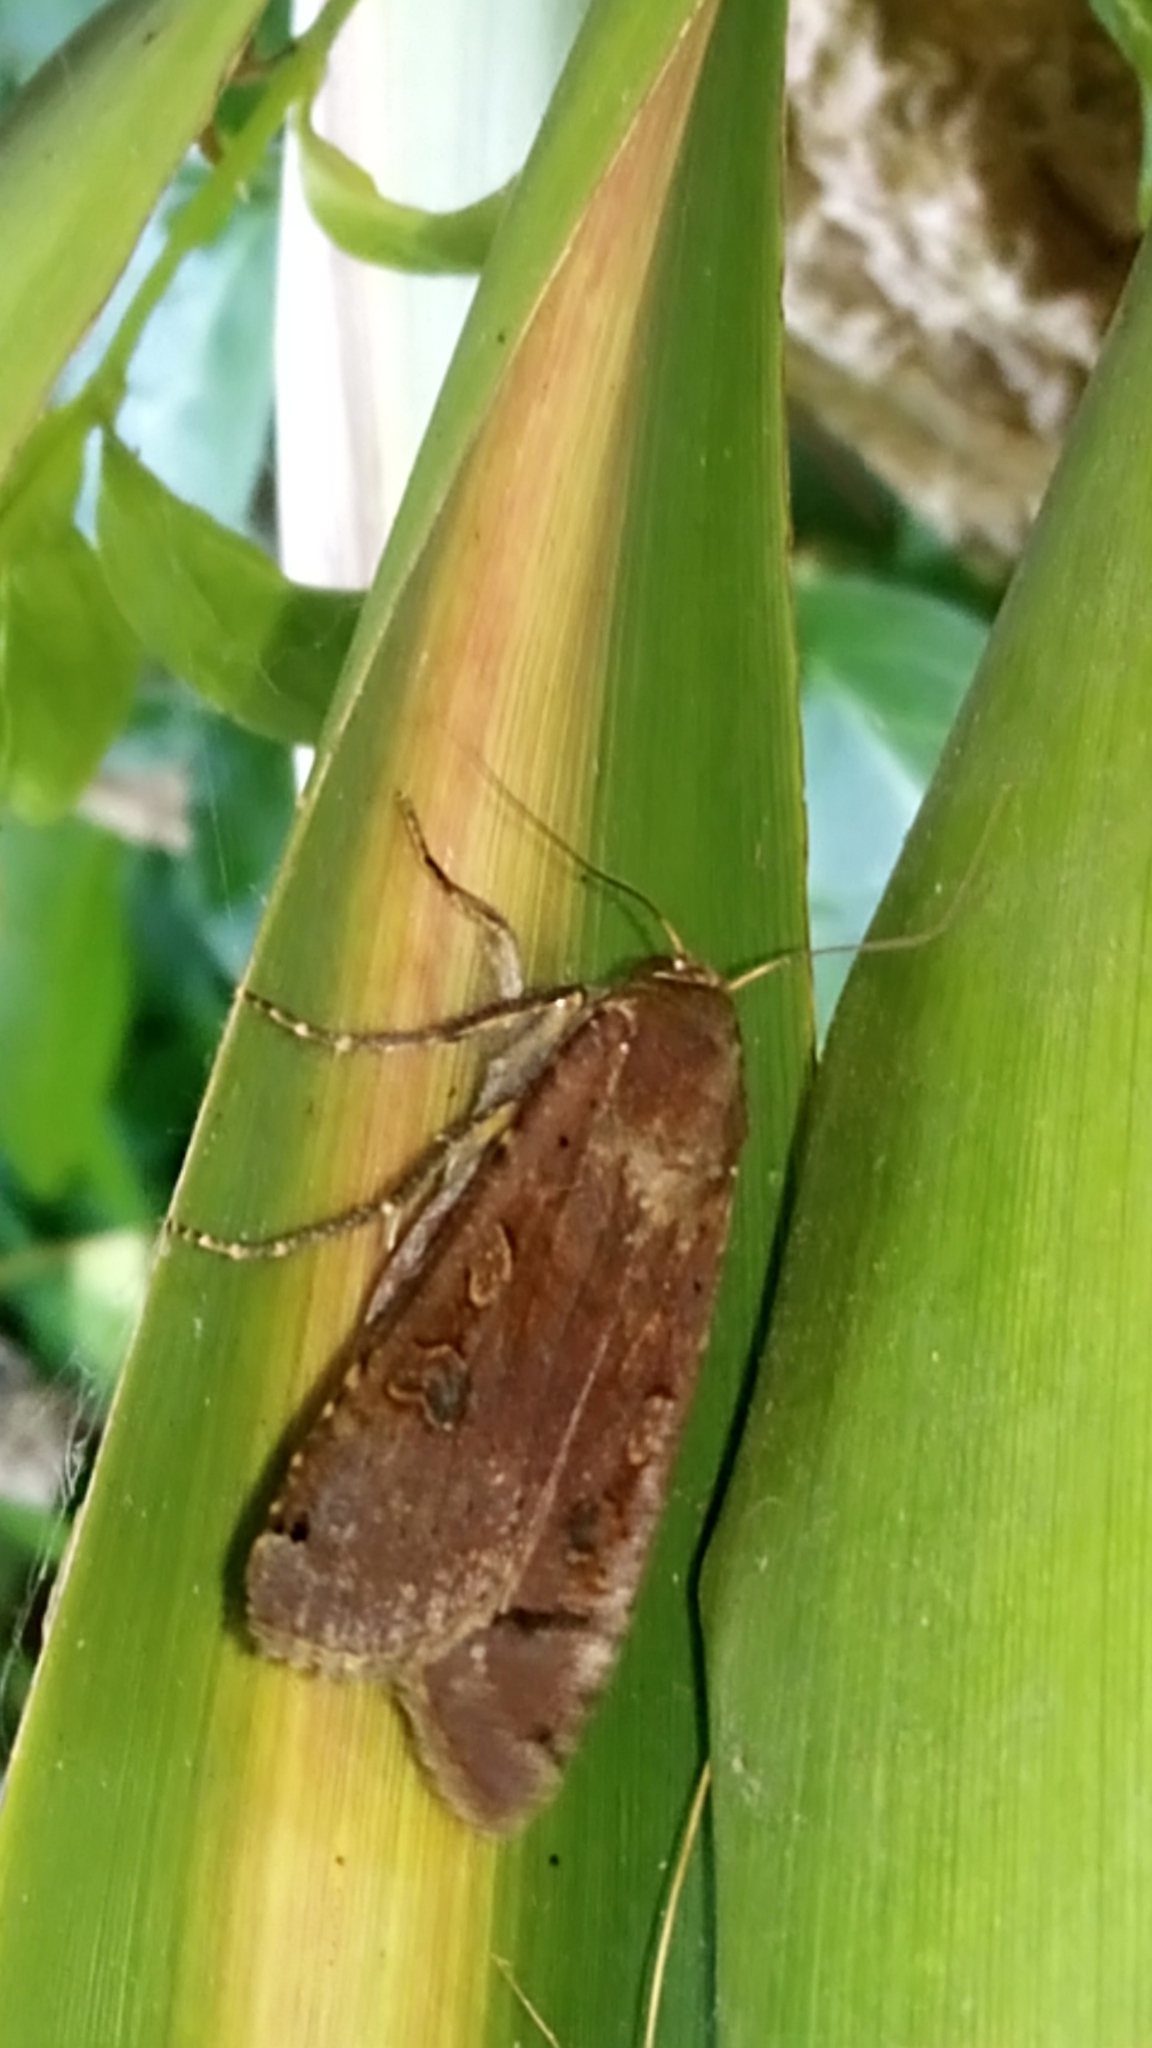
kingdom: Animalia
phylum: Arthropoda
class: Insecta
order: Lepidoptera
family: Noctuidae
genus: Noctua
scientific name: Noctua pronuba
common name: Large yellow underwing
